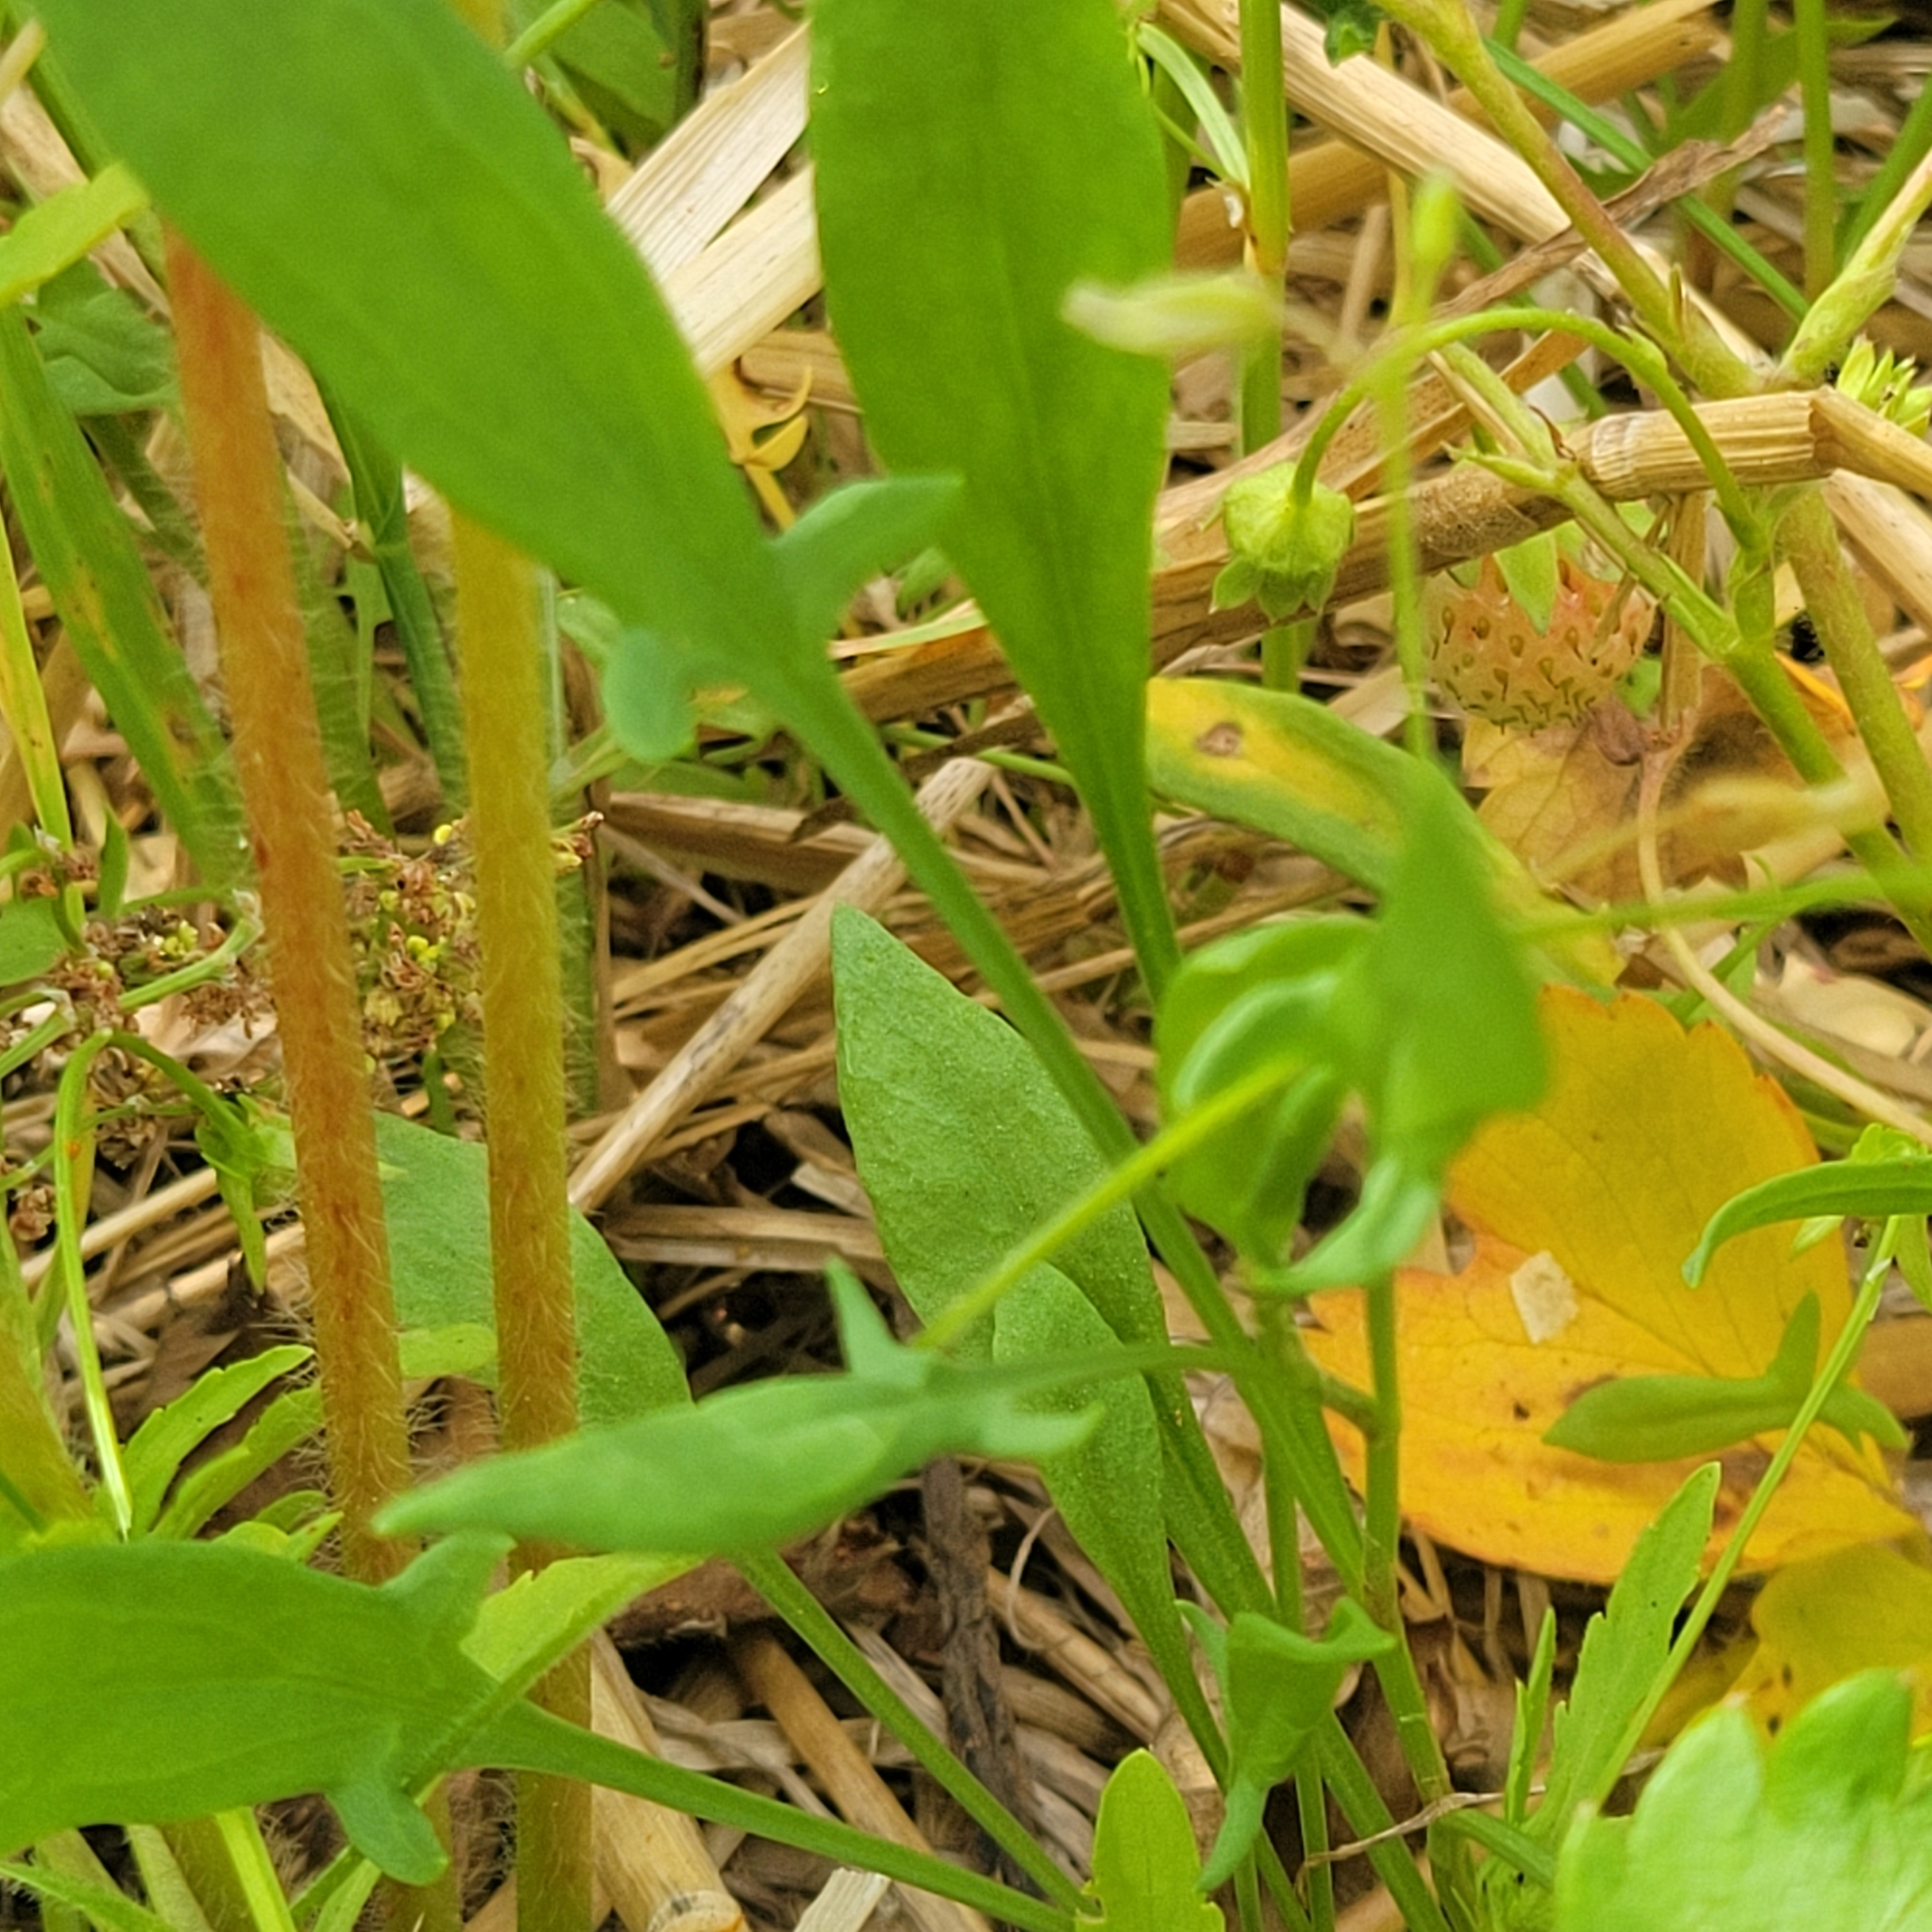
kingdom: Plantae
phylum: Tracheophyta
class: Magnoliopsida
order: Caryophyllales
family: Polygonaceae
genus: Rumex
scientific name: Rumex acetosella
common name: Common sheep sorrel
